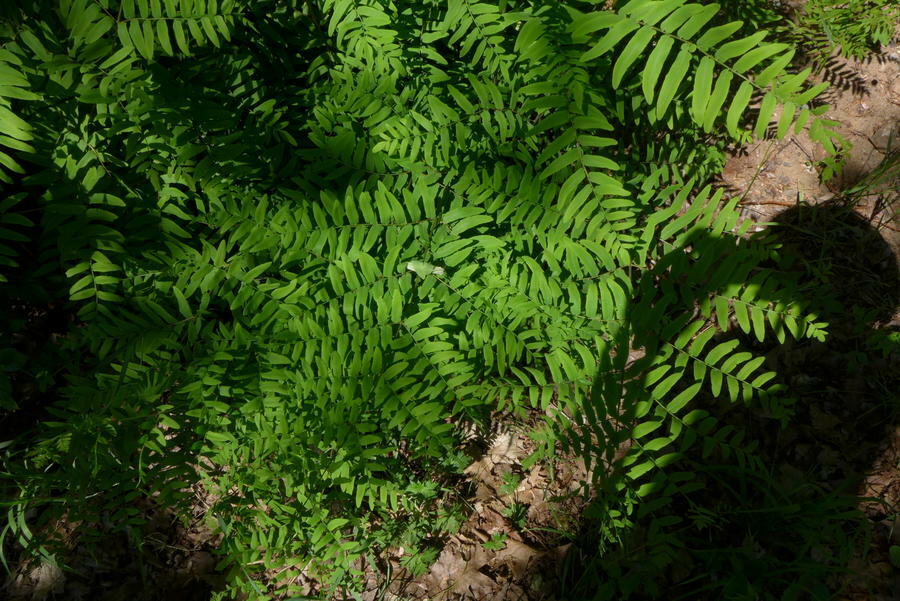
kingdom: Plantae
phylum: Tracheophyta
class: Polypodiopsida
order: Osmundales
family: Osmundaceae
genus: Osmunda
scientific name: Osmunda spectabilis
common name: American royal fern
